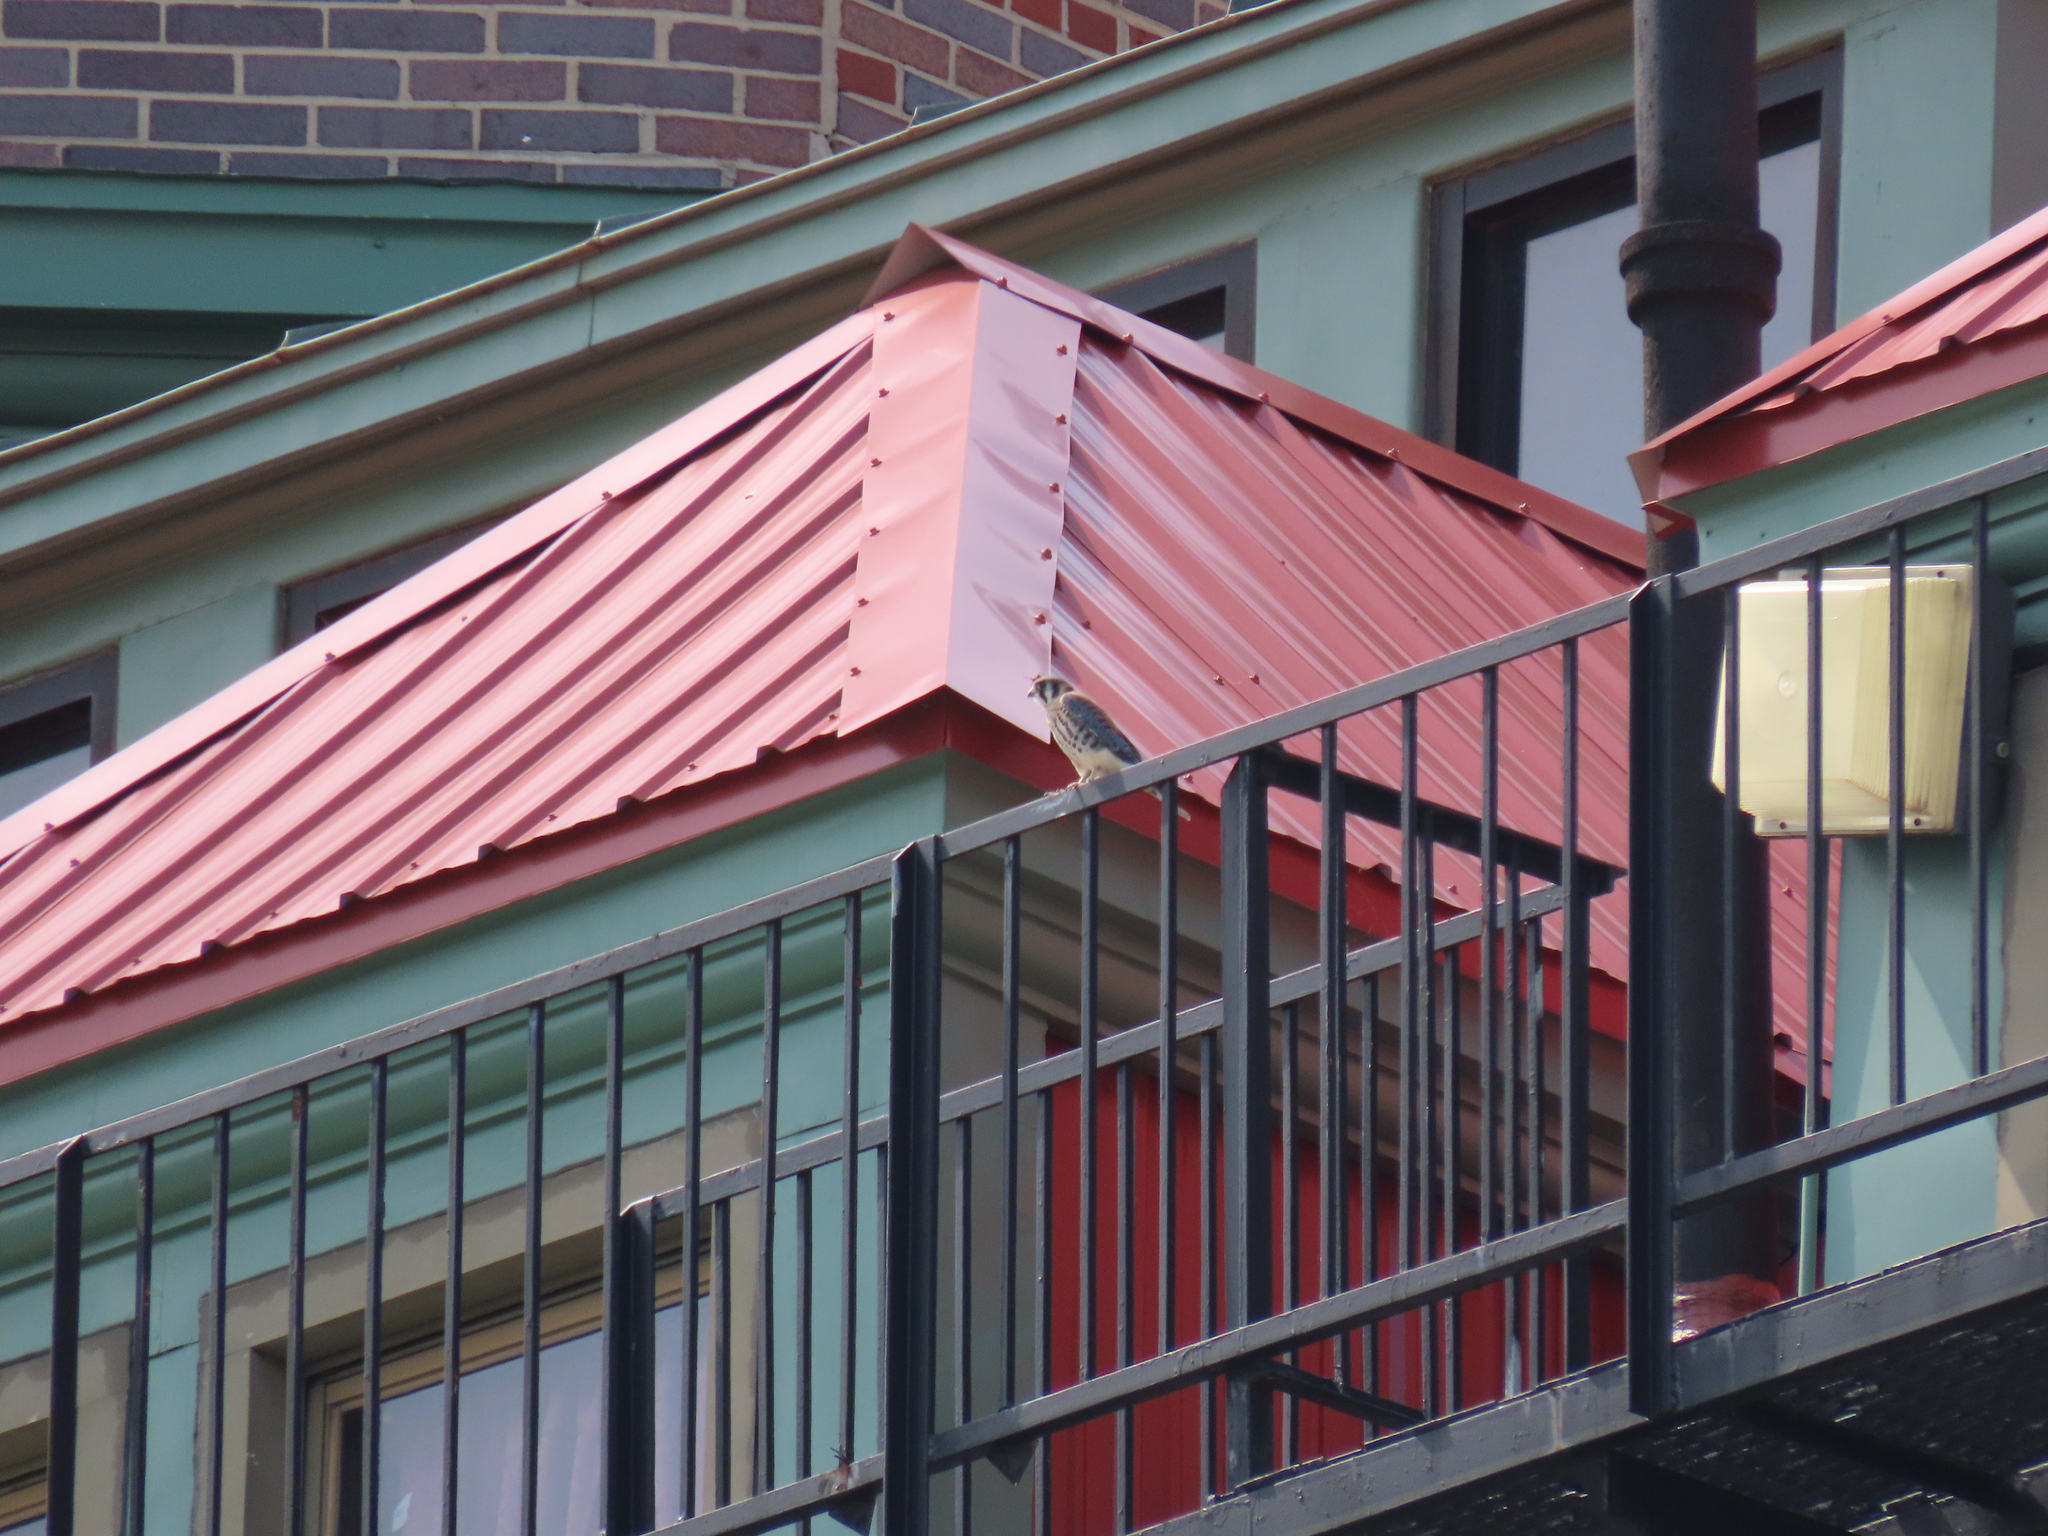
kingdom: Animalia
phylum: Chordata
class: Aves
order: Falconiformes
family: Falconidae
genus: Falco
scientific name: Falco sparverius
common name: American kestrel
